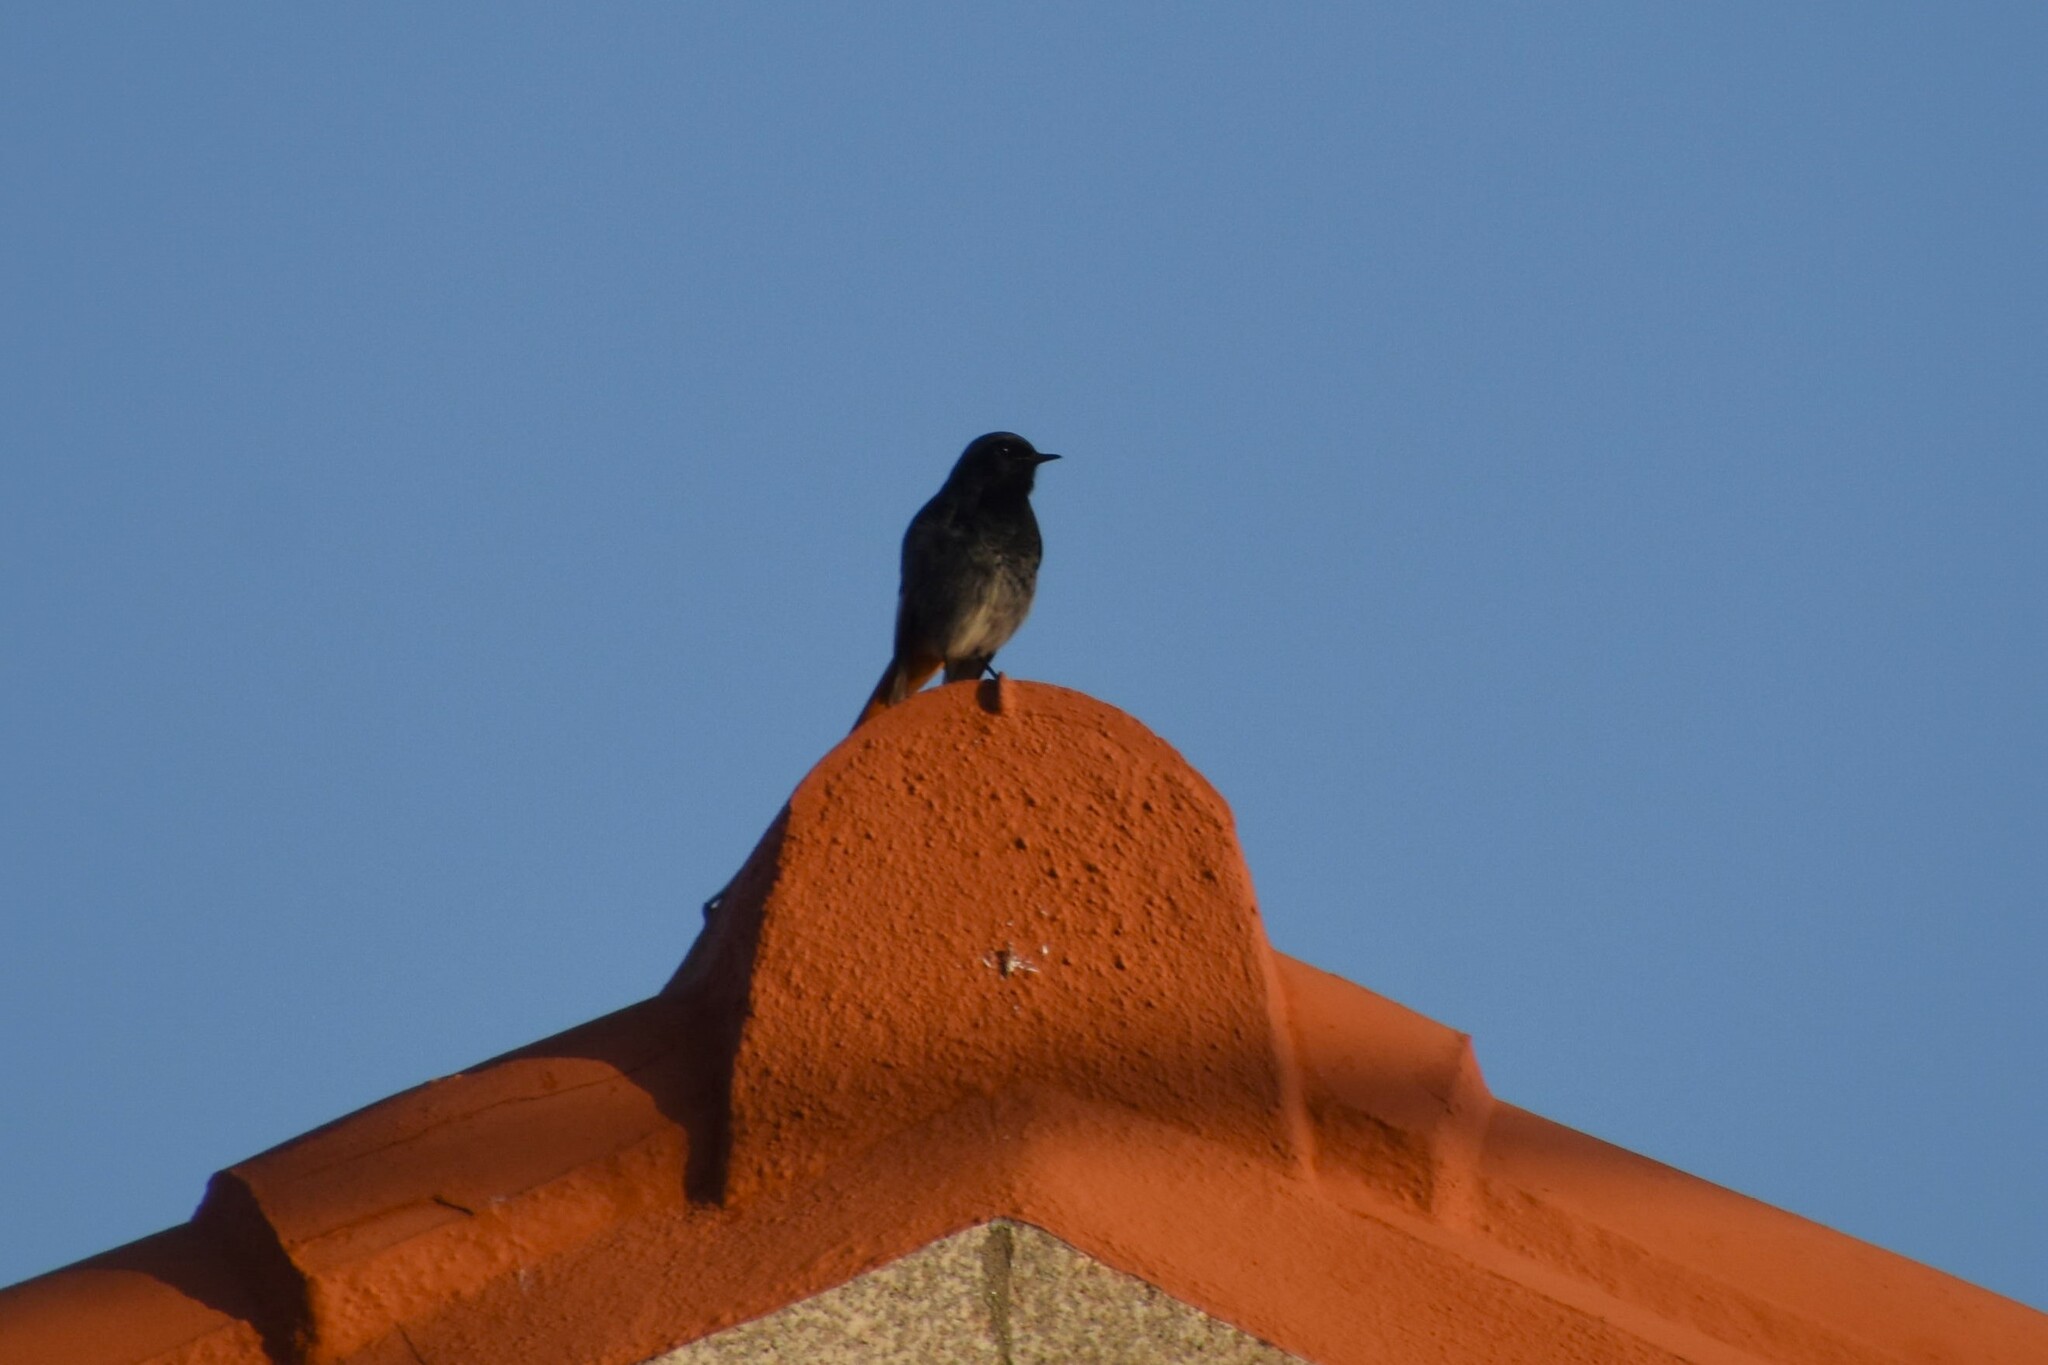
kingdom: Animalia
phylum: Chordata
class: Aves
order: Passeriformes
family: Muscicapidae
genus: Phoenicurus
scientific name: Phoenicurus ochruros
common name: Black redstart
